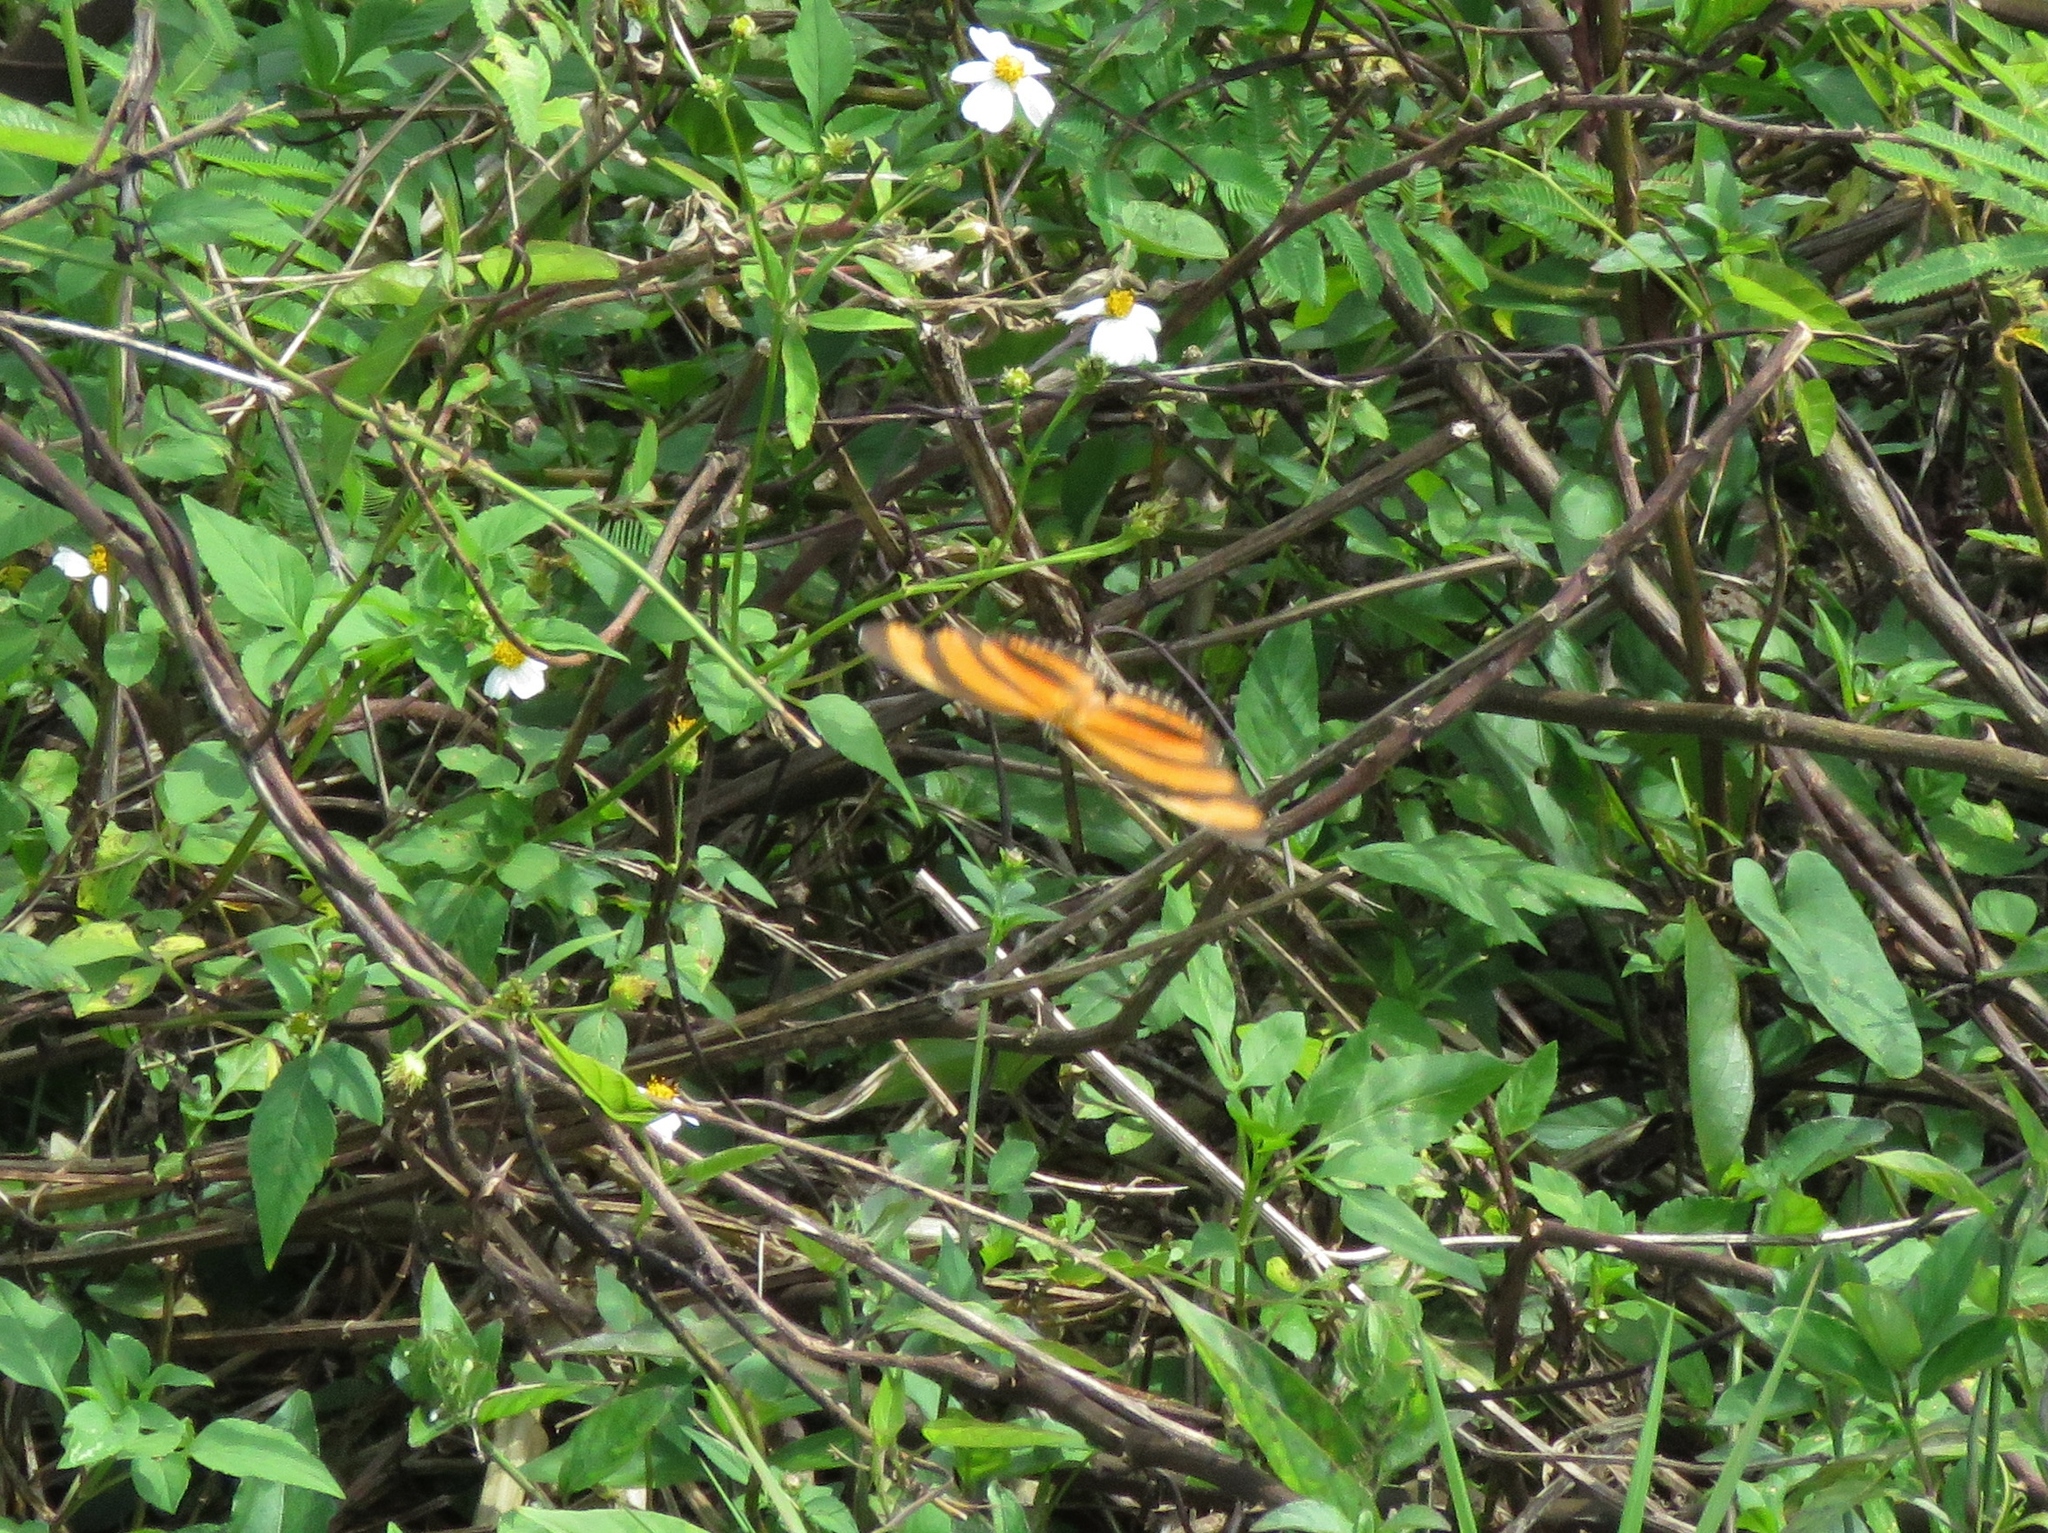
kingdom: Animalia
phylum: Arthropoda
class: Insecta
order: Lepidoptera
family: Nymphalidae
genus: Dryadula
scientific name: Dryadula phaetusa
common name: Banded orange heliconian
